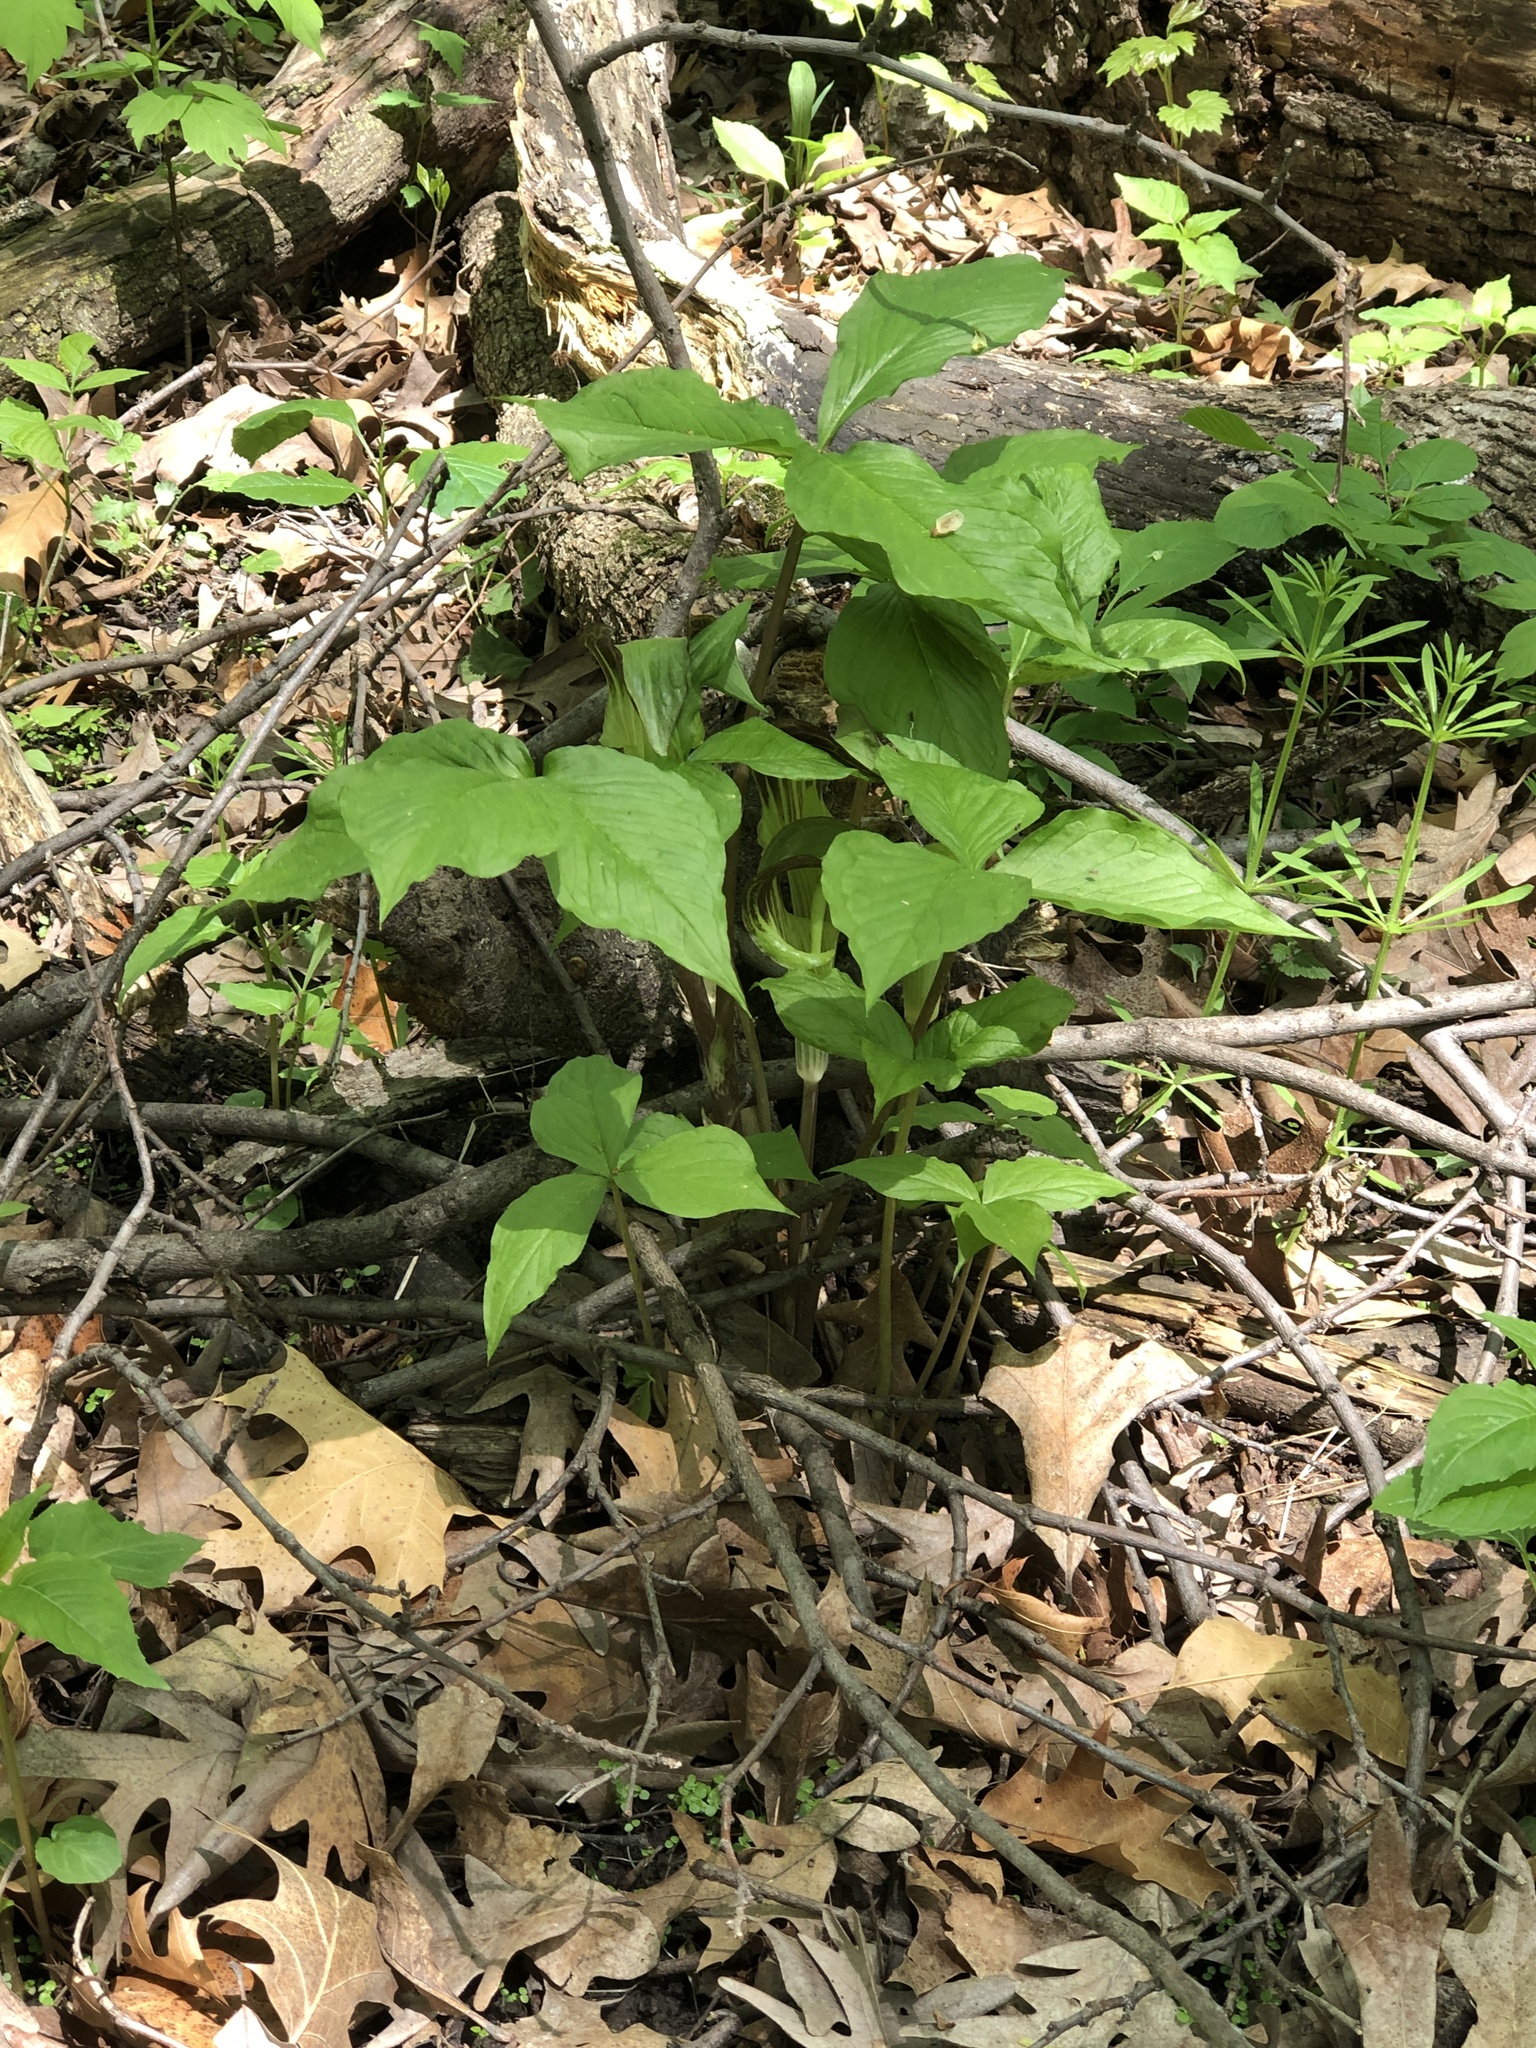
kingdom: Plantae
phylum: Tracheophyta
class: Liliopsida
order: Alismatales
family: Araceae
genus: Arisaema
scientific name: Arisaema triphyllum
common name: Jack-in-the-pulpit
